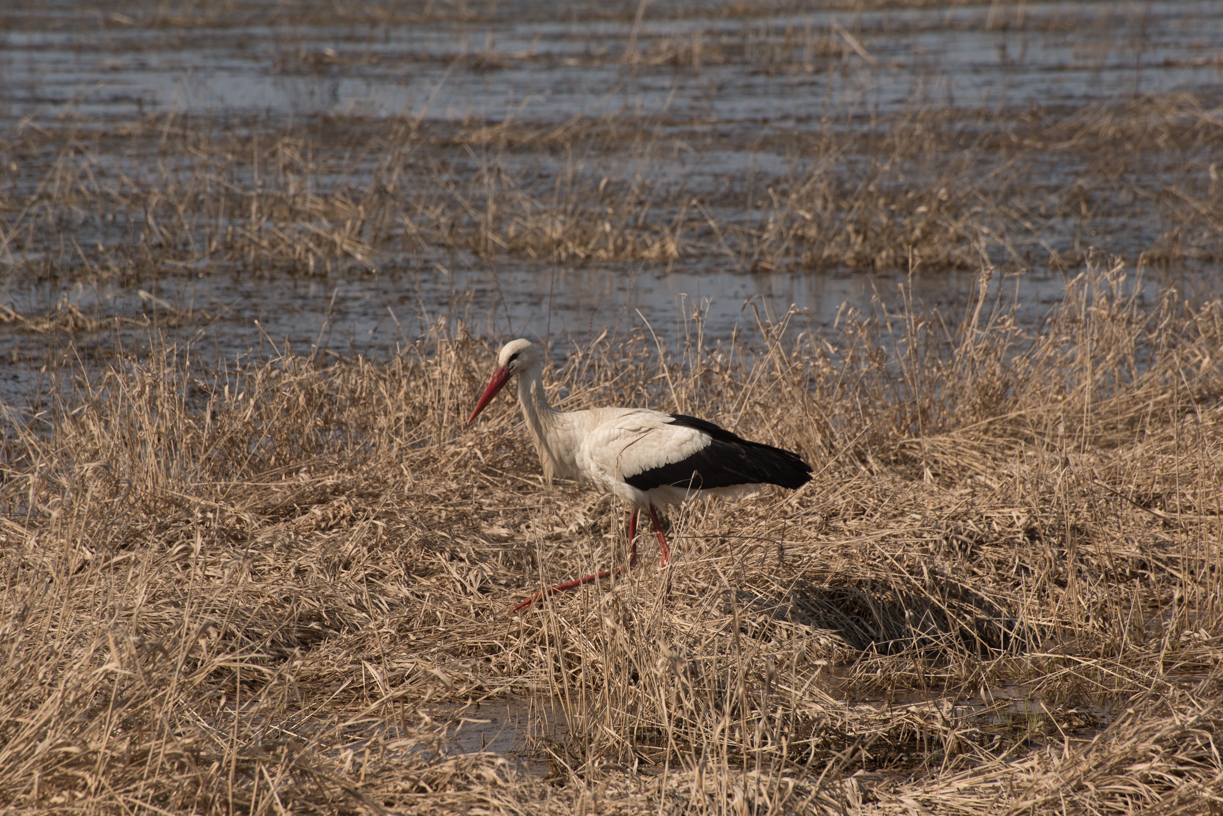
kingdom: Animalia
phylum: Chordata
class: Aves
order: Ciconiiformes
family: Ciconiidae
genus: Ciconia
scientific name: Ciconia ciconia
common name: White stork
